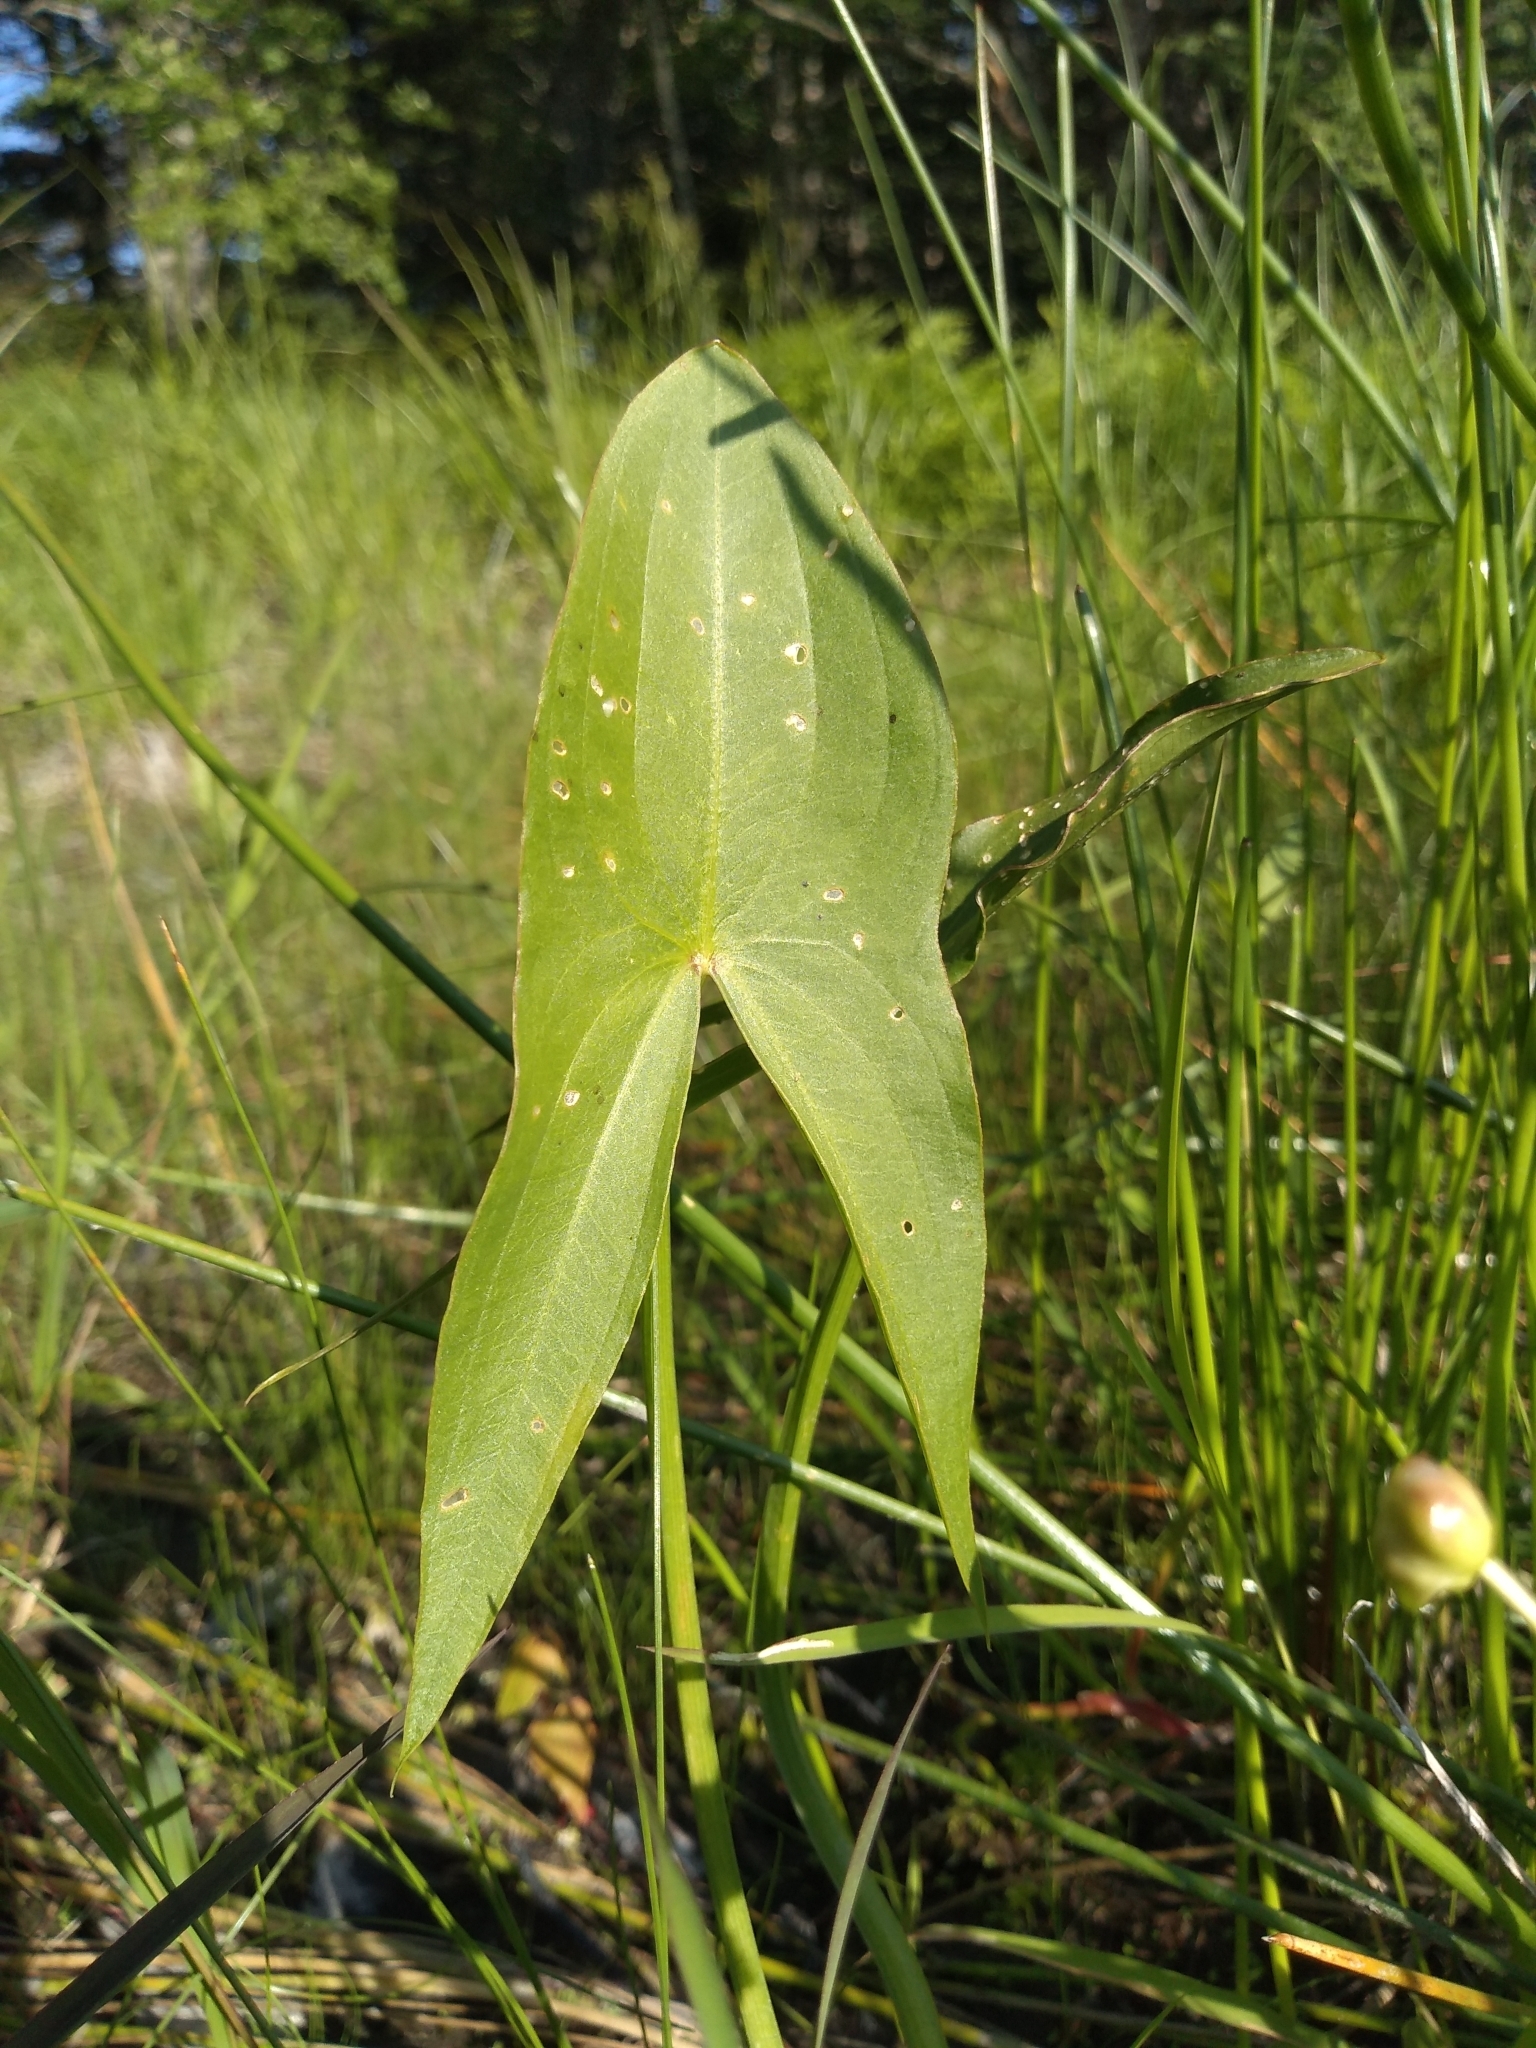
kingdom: Plantae
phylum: Tracheophyta
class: Liliopsida
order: Alismatales
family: Alismataceae
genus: Sagittaria
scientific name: Sagittaria latifolia
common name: Duck-potato
